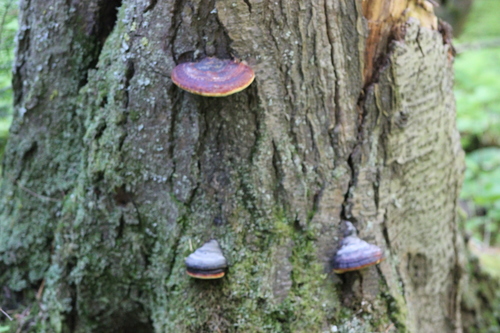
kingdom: Fungi
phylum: Basidiomycota
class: Agaricomycetes
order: Polyporales
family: Fomitopsidaceae
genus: Fomitopsis
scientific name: Fomitopsis pinicola
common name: Red-belted bracket
